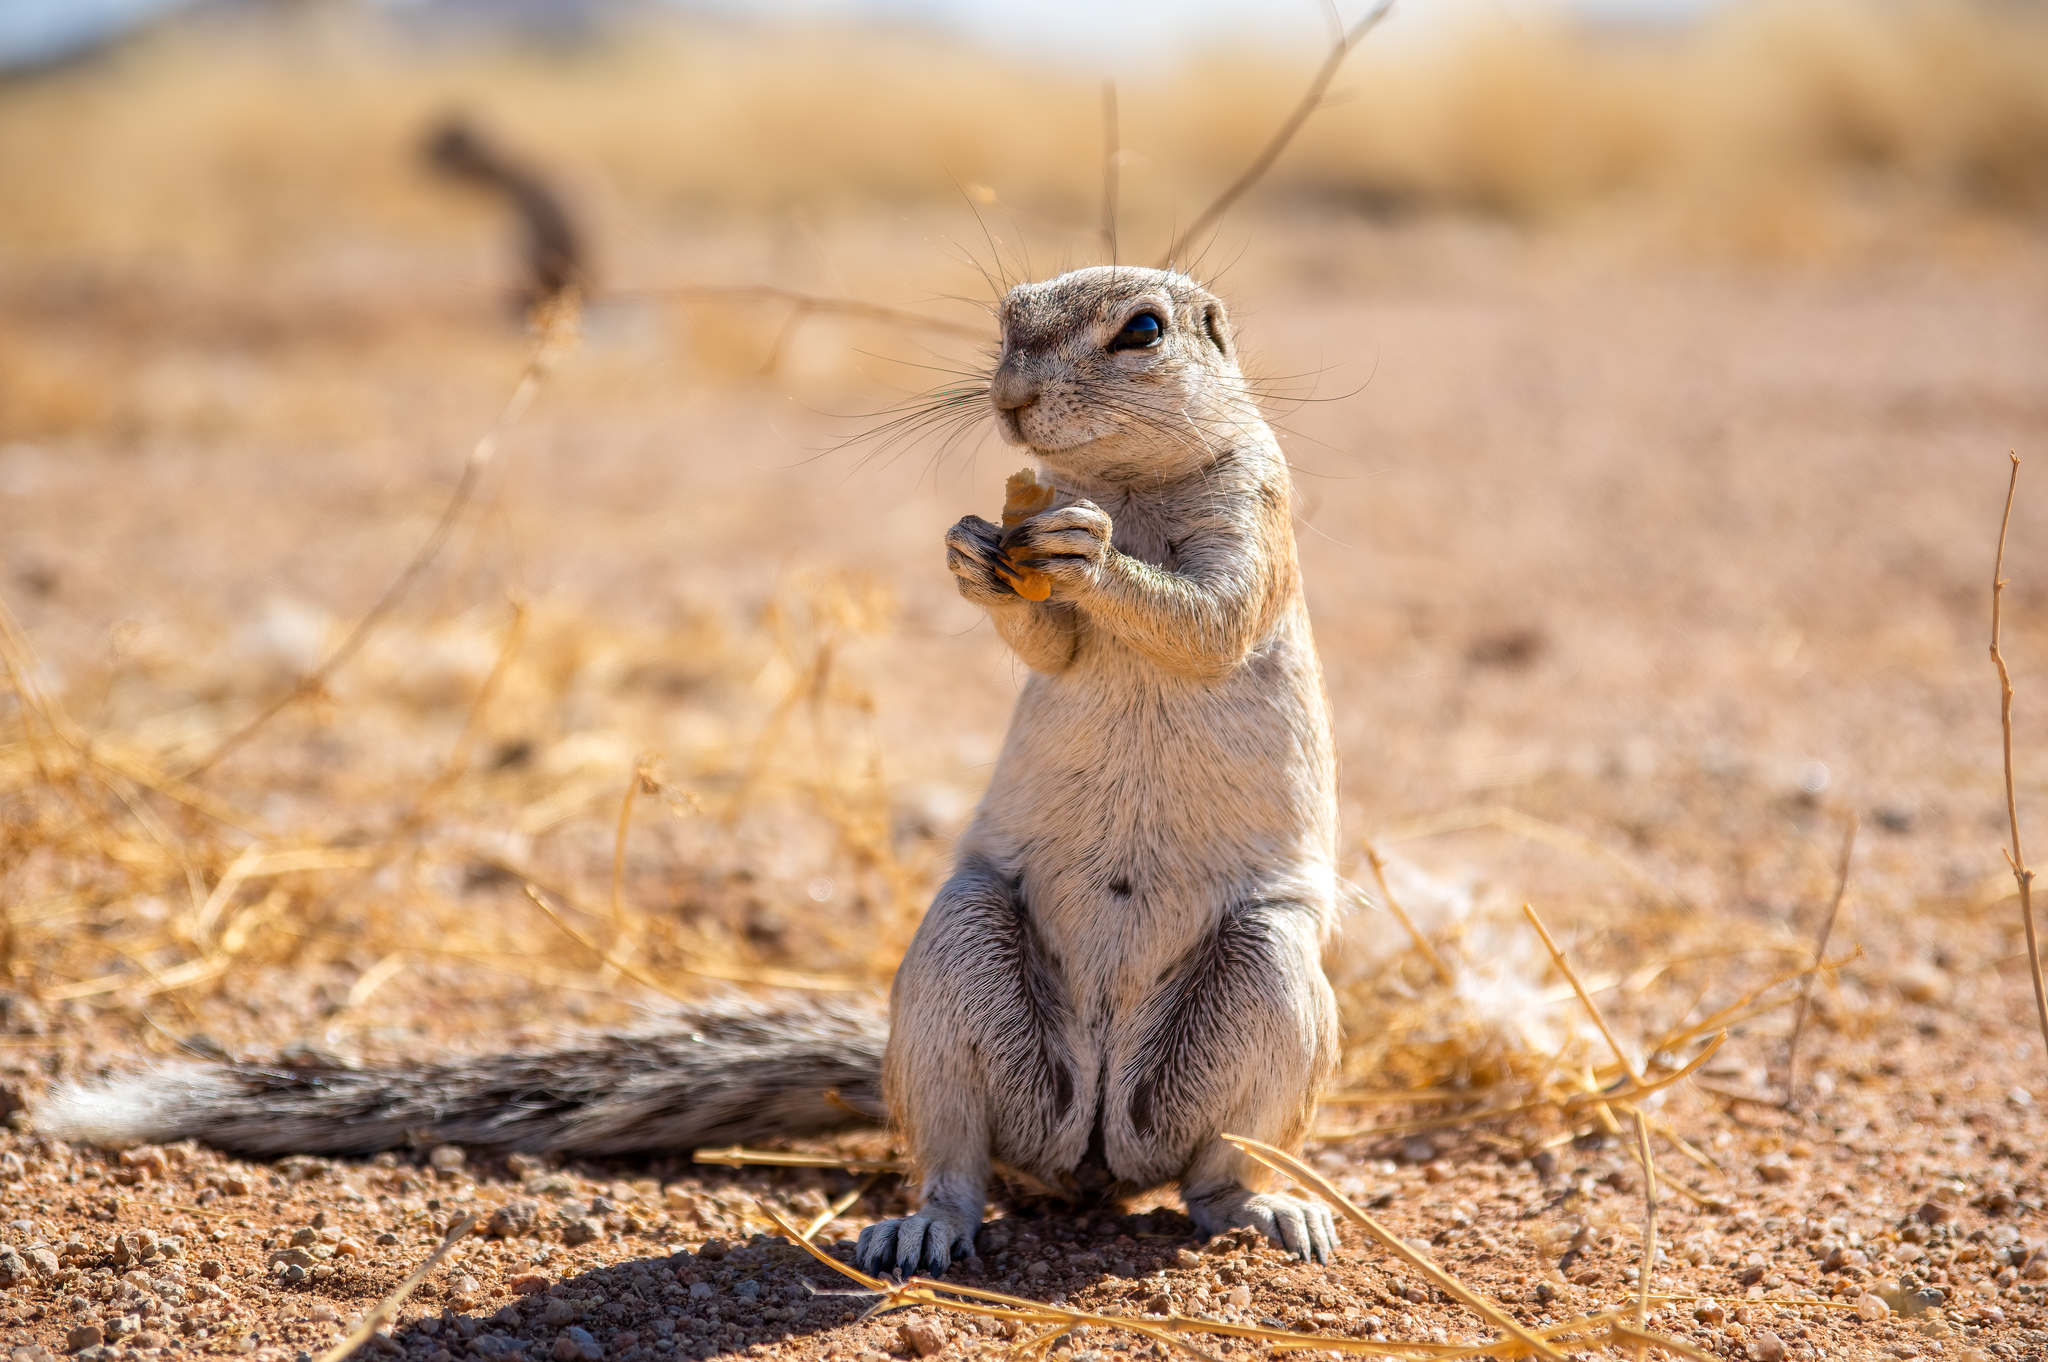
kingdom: Animalia
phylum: Chordata
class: Mammalia
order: Rodentia
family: Sciuridae
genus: Xerus
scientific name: Xerus inauris
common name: South african ground squirrel
